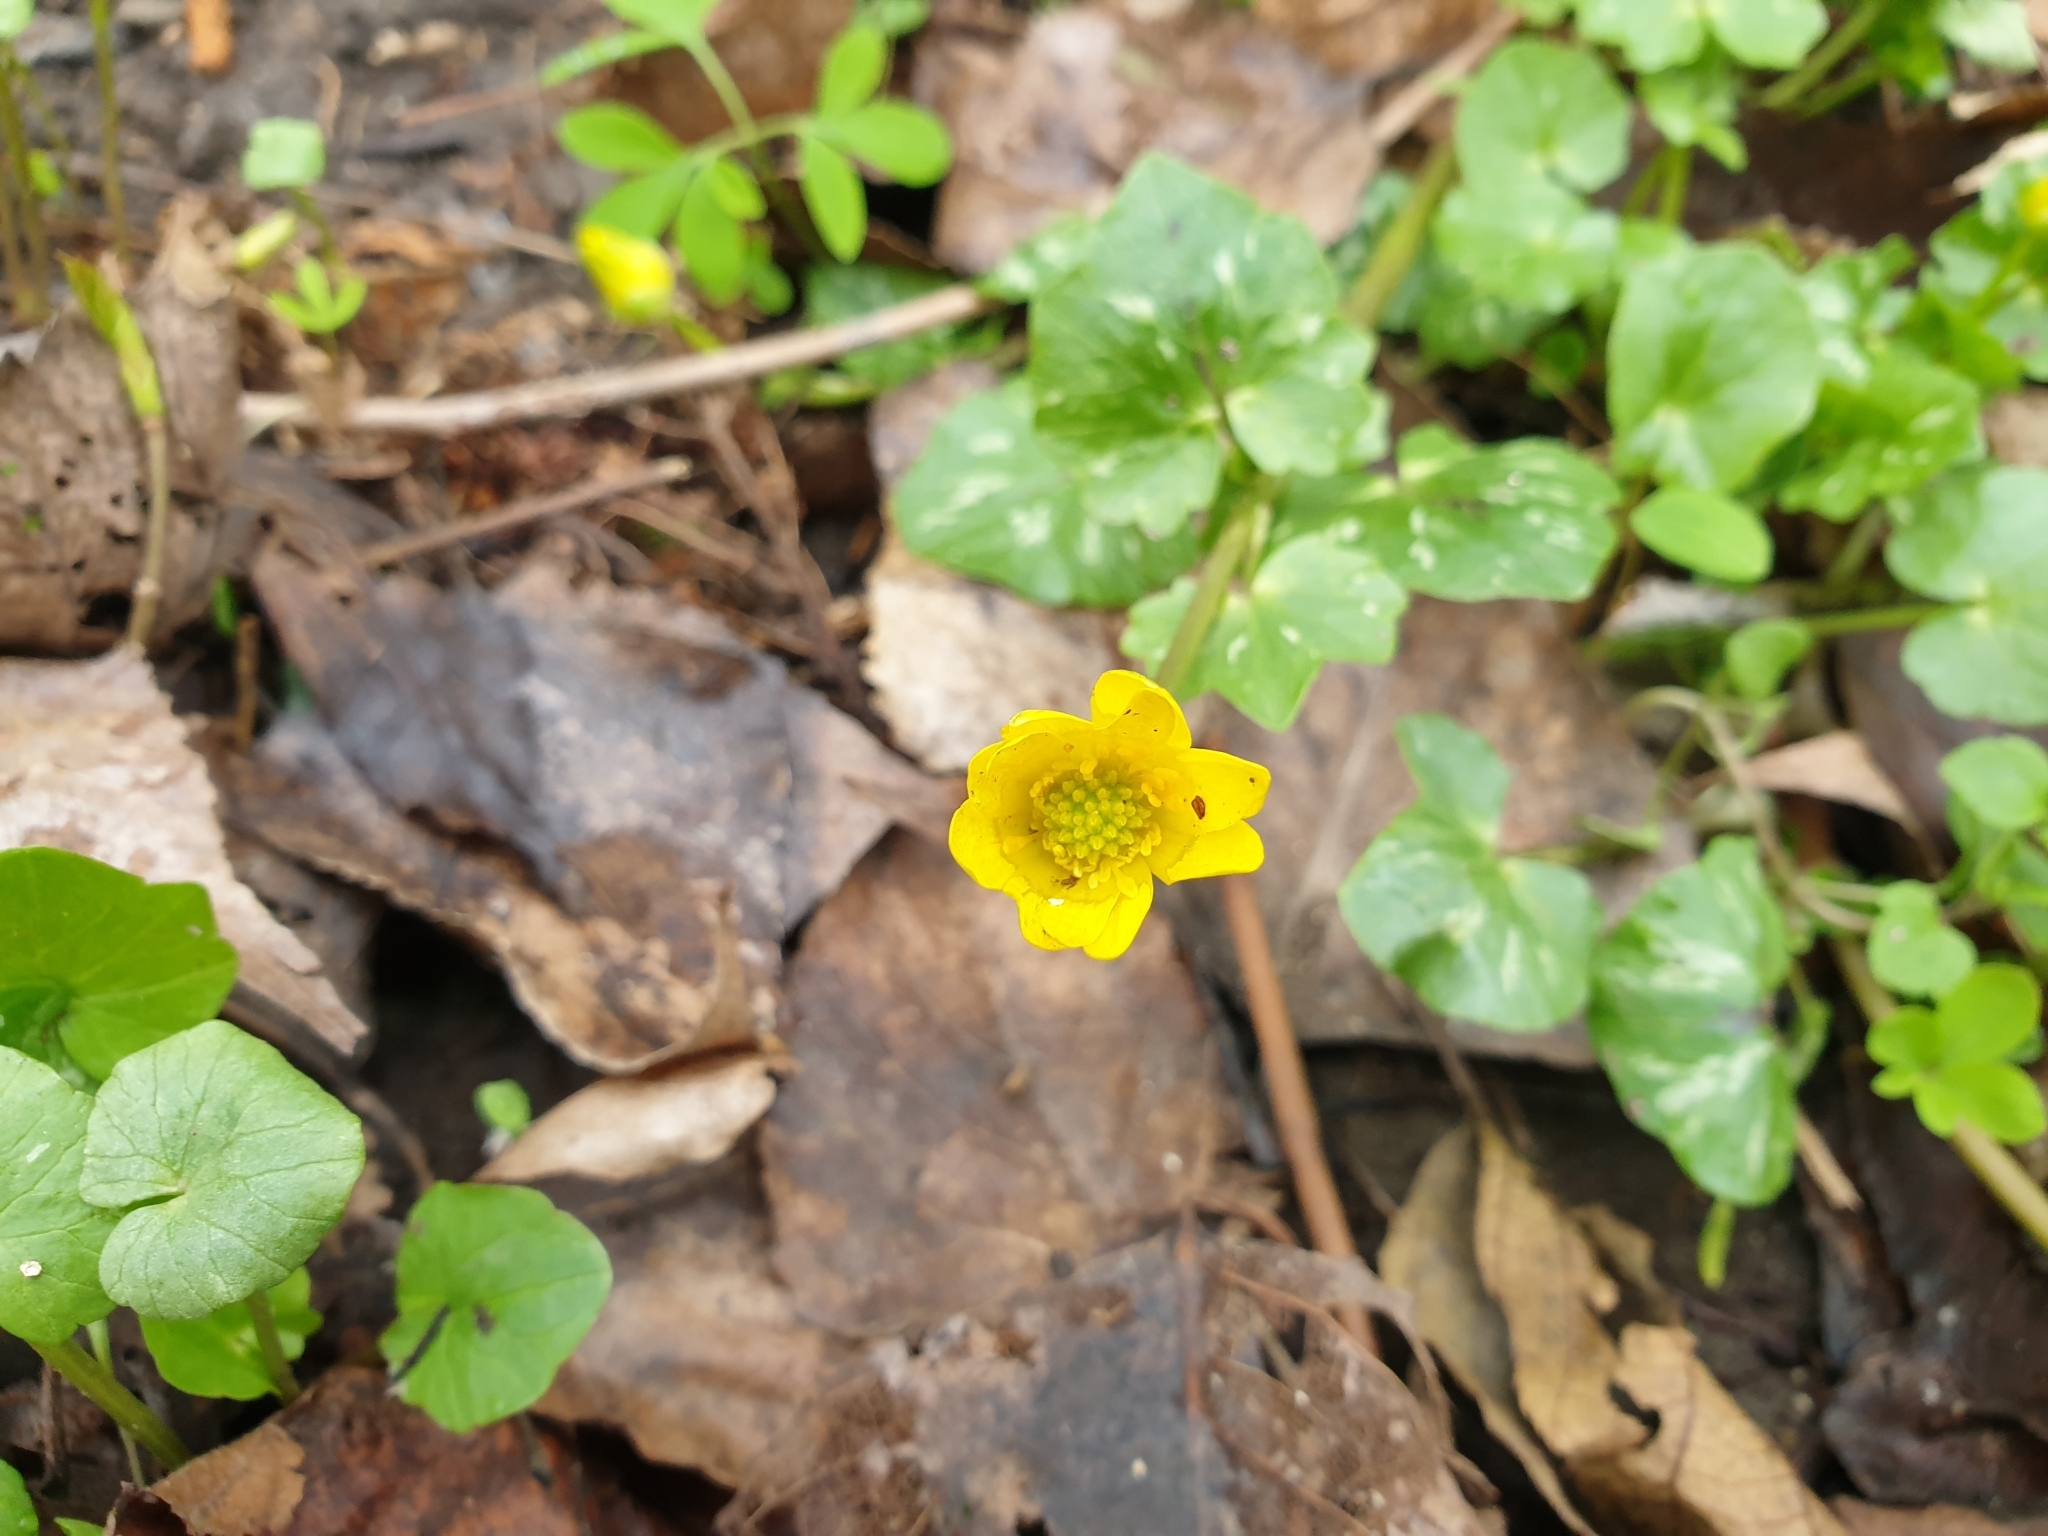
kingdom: Plantae
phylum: Tracheophyta
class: Magnoliopsida
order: Ranunculales
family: Ranunculaceae
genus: Ficaria
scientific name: Ficaria verna
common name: Lesser celandine
